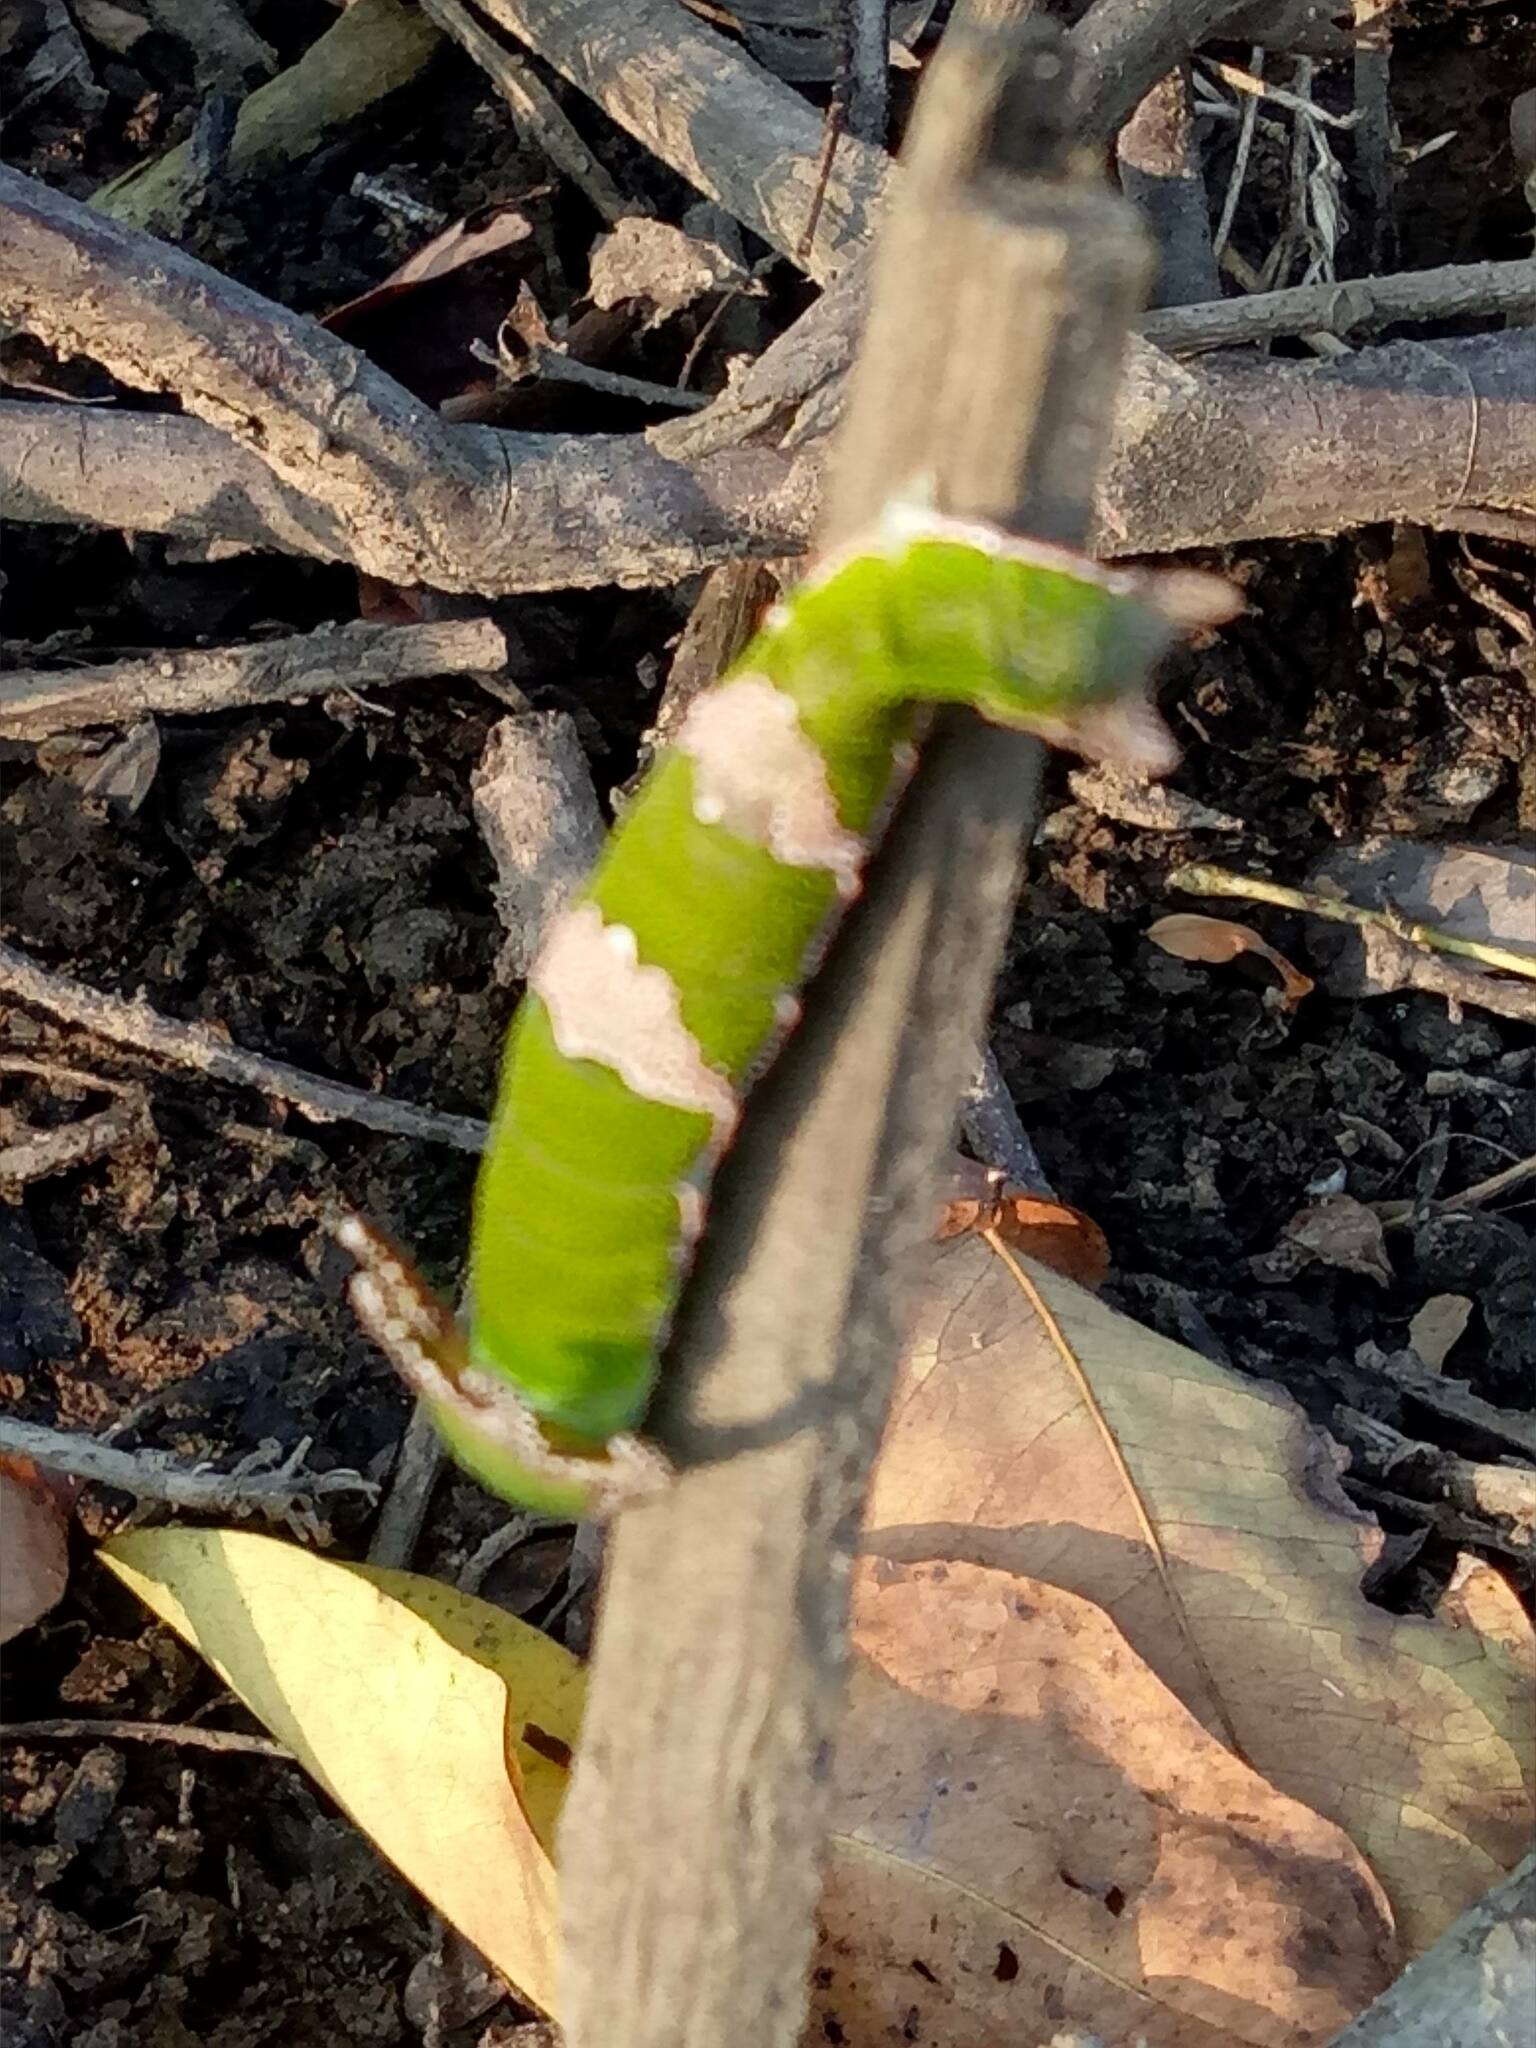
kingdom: Animalia
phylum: Arthropoda
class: Insecta
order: Lepidoptera
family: Nymphalidae
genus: Polyura
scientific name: Polyura delphis
